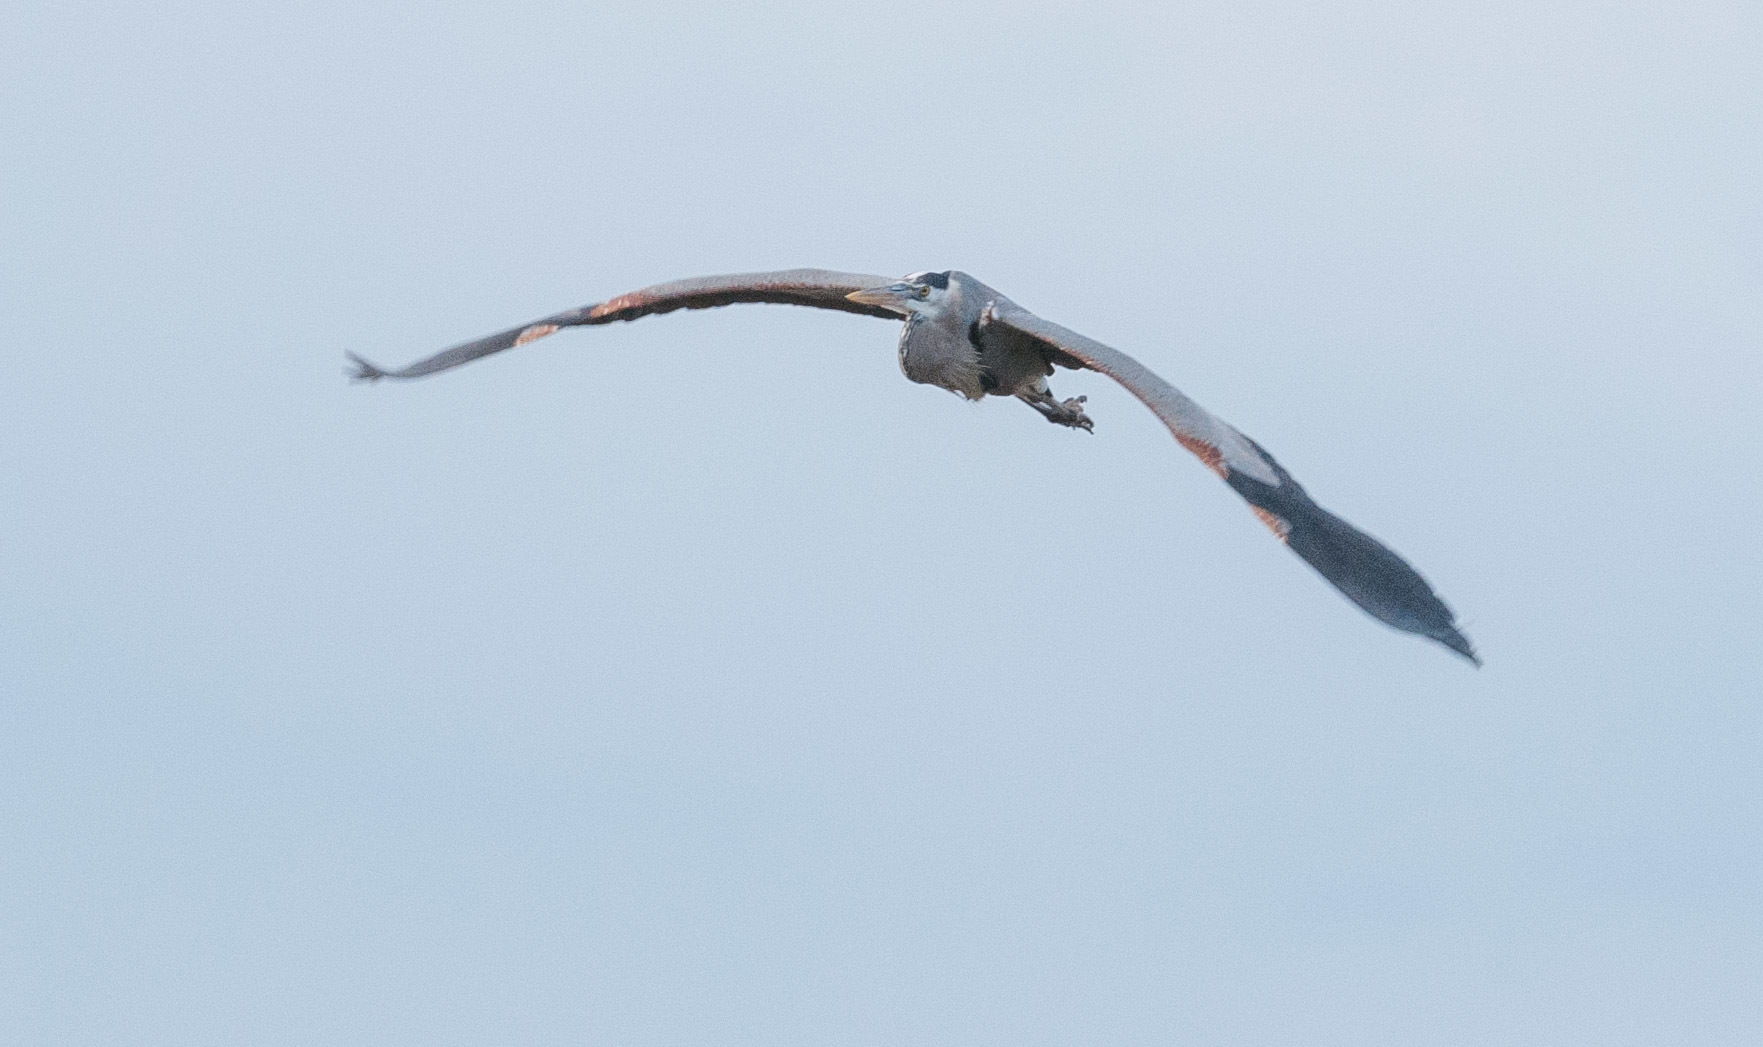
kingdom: Animalia
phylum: Chordata
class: Aves
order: Pelecaniformes
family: Ardeidae
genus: Ardea
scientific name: Ardea herodias
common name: Great blue heron
